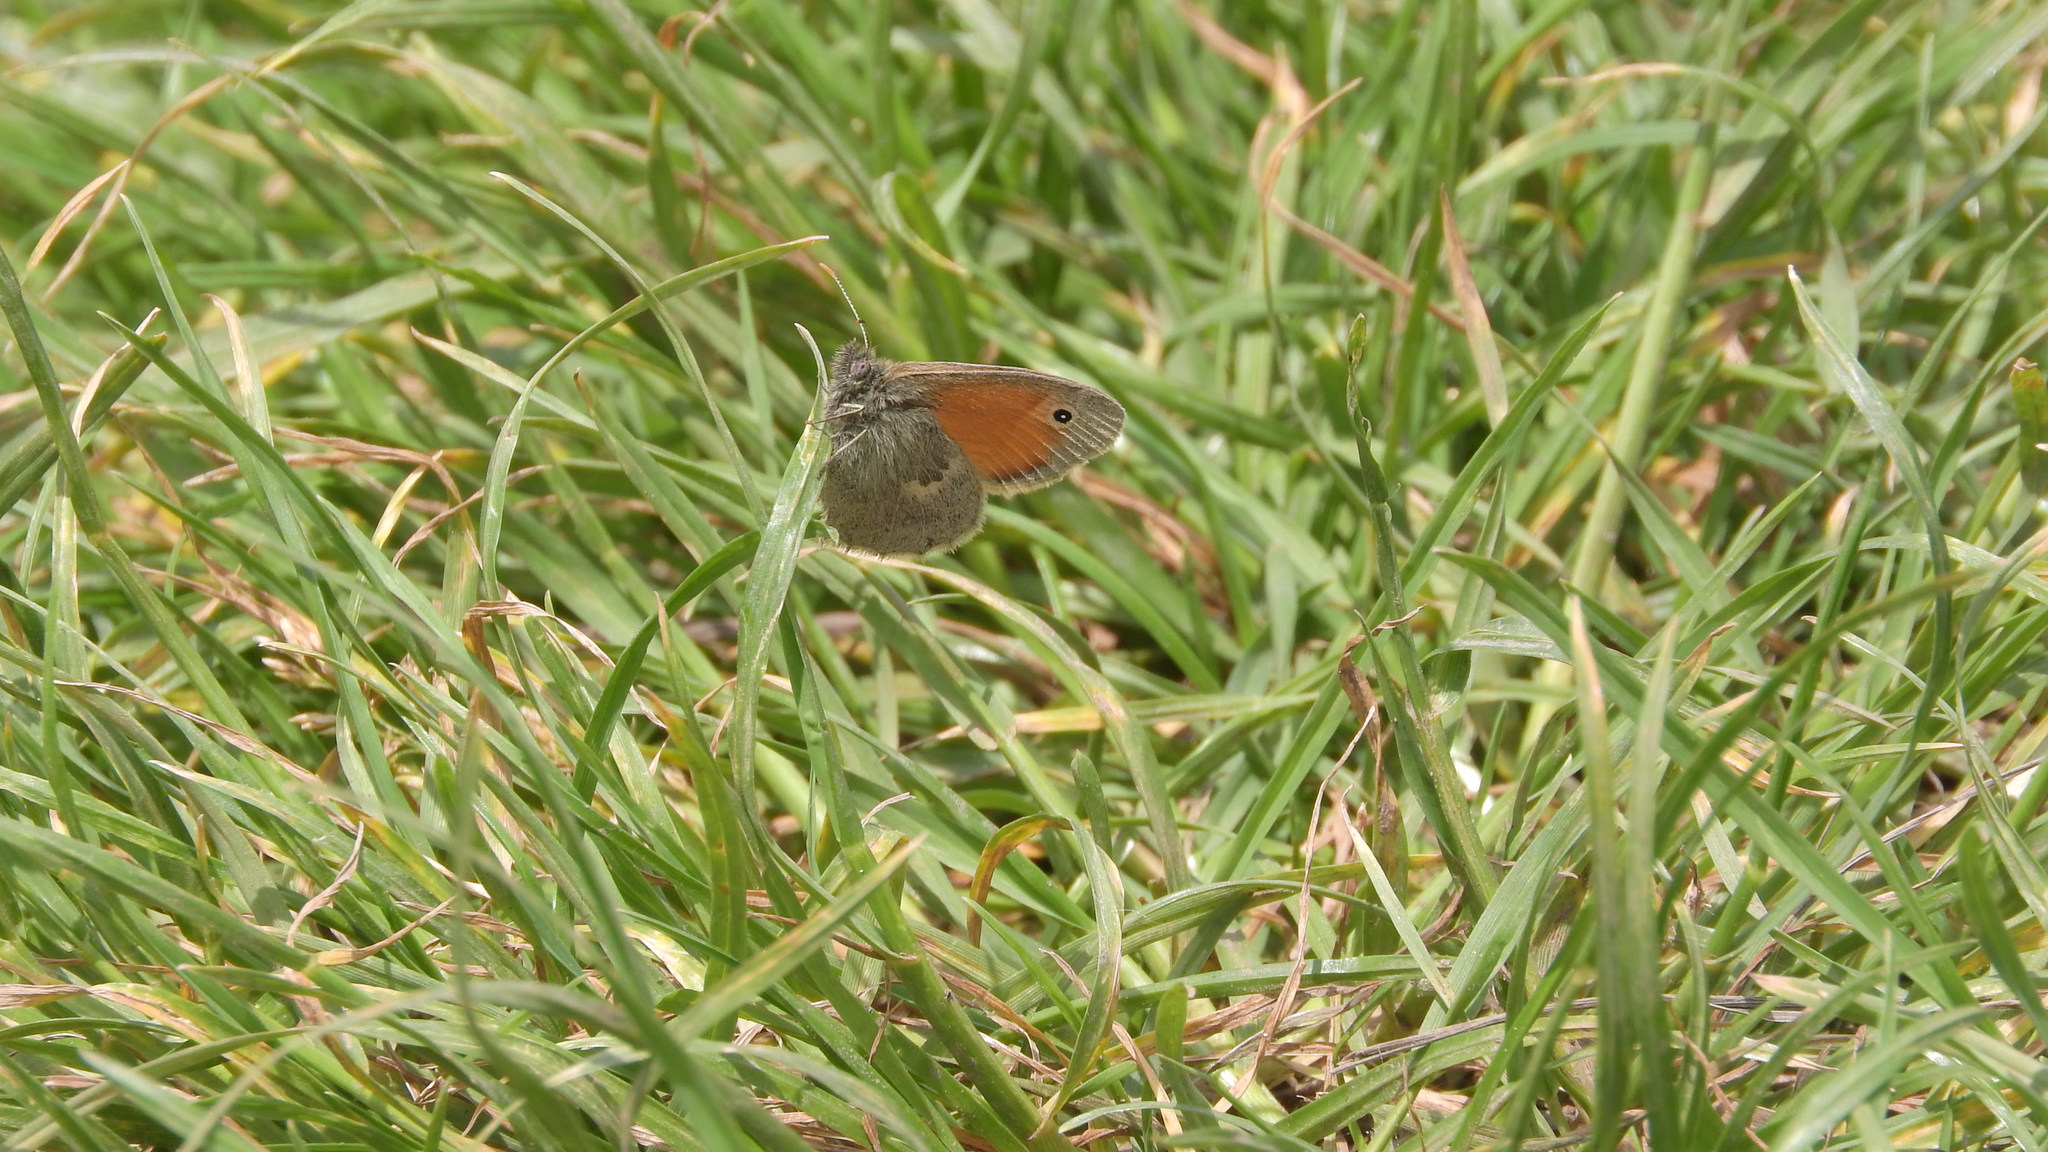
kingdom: Animalia
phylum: Arthropoda
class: Insecta
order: Lepidoptera
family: Nymphalidae
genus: Coenonympha
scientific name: Coenonympha pamphilus
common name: Small heath
